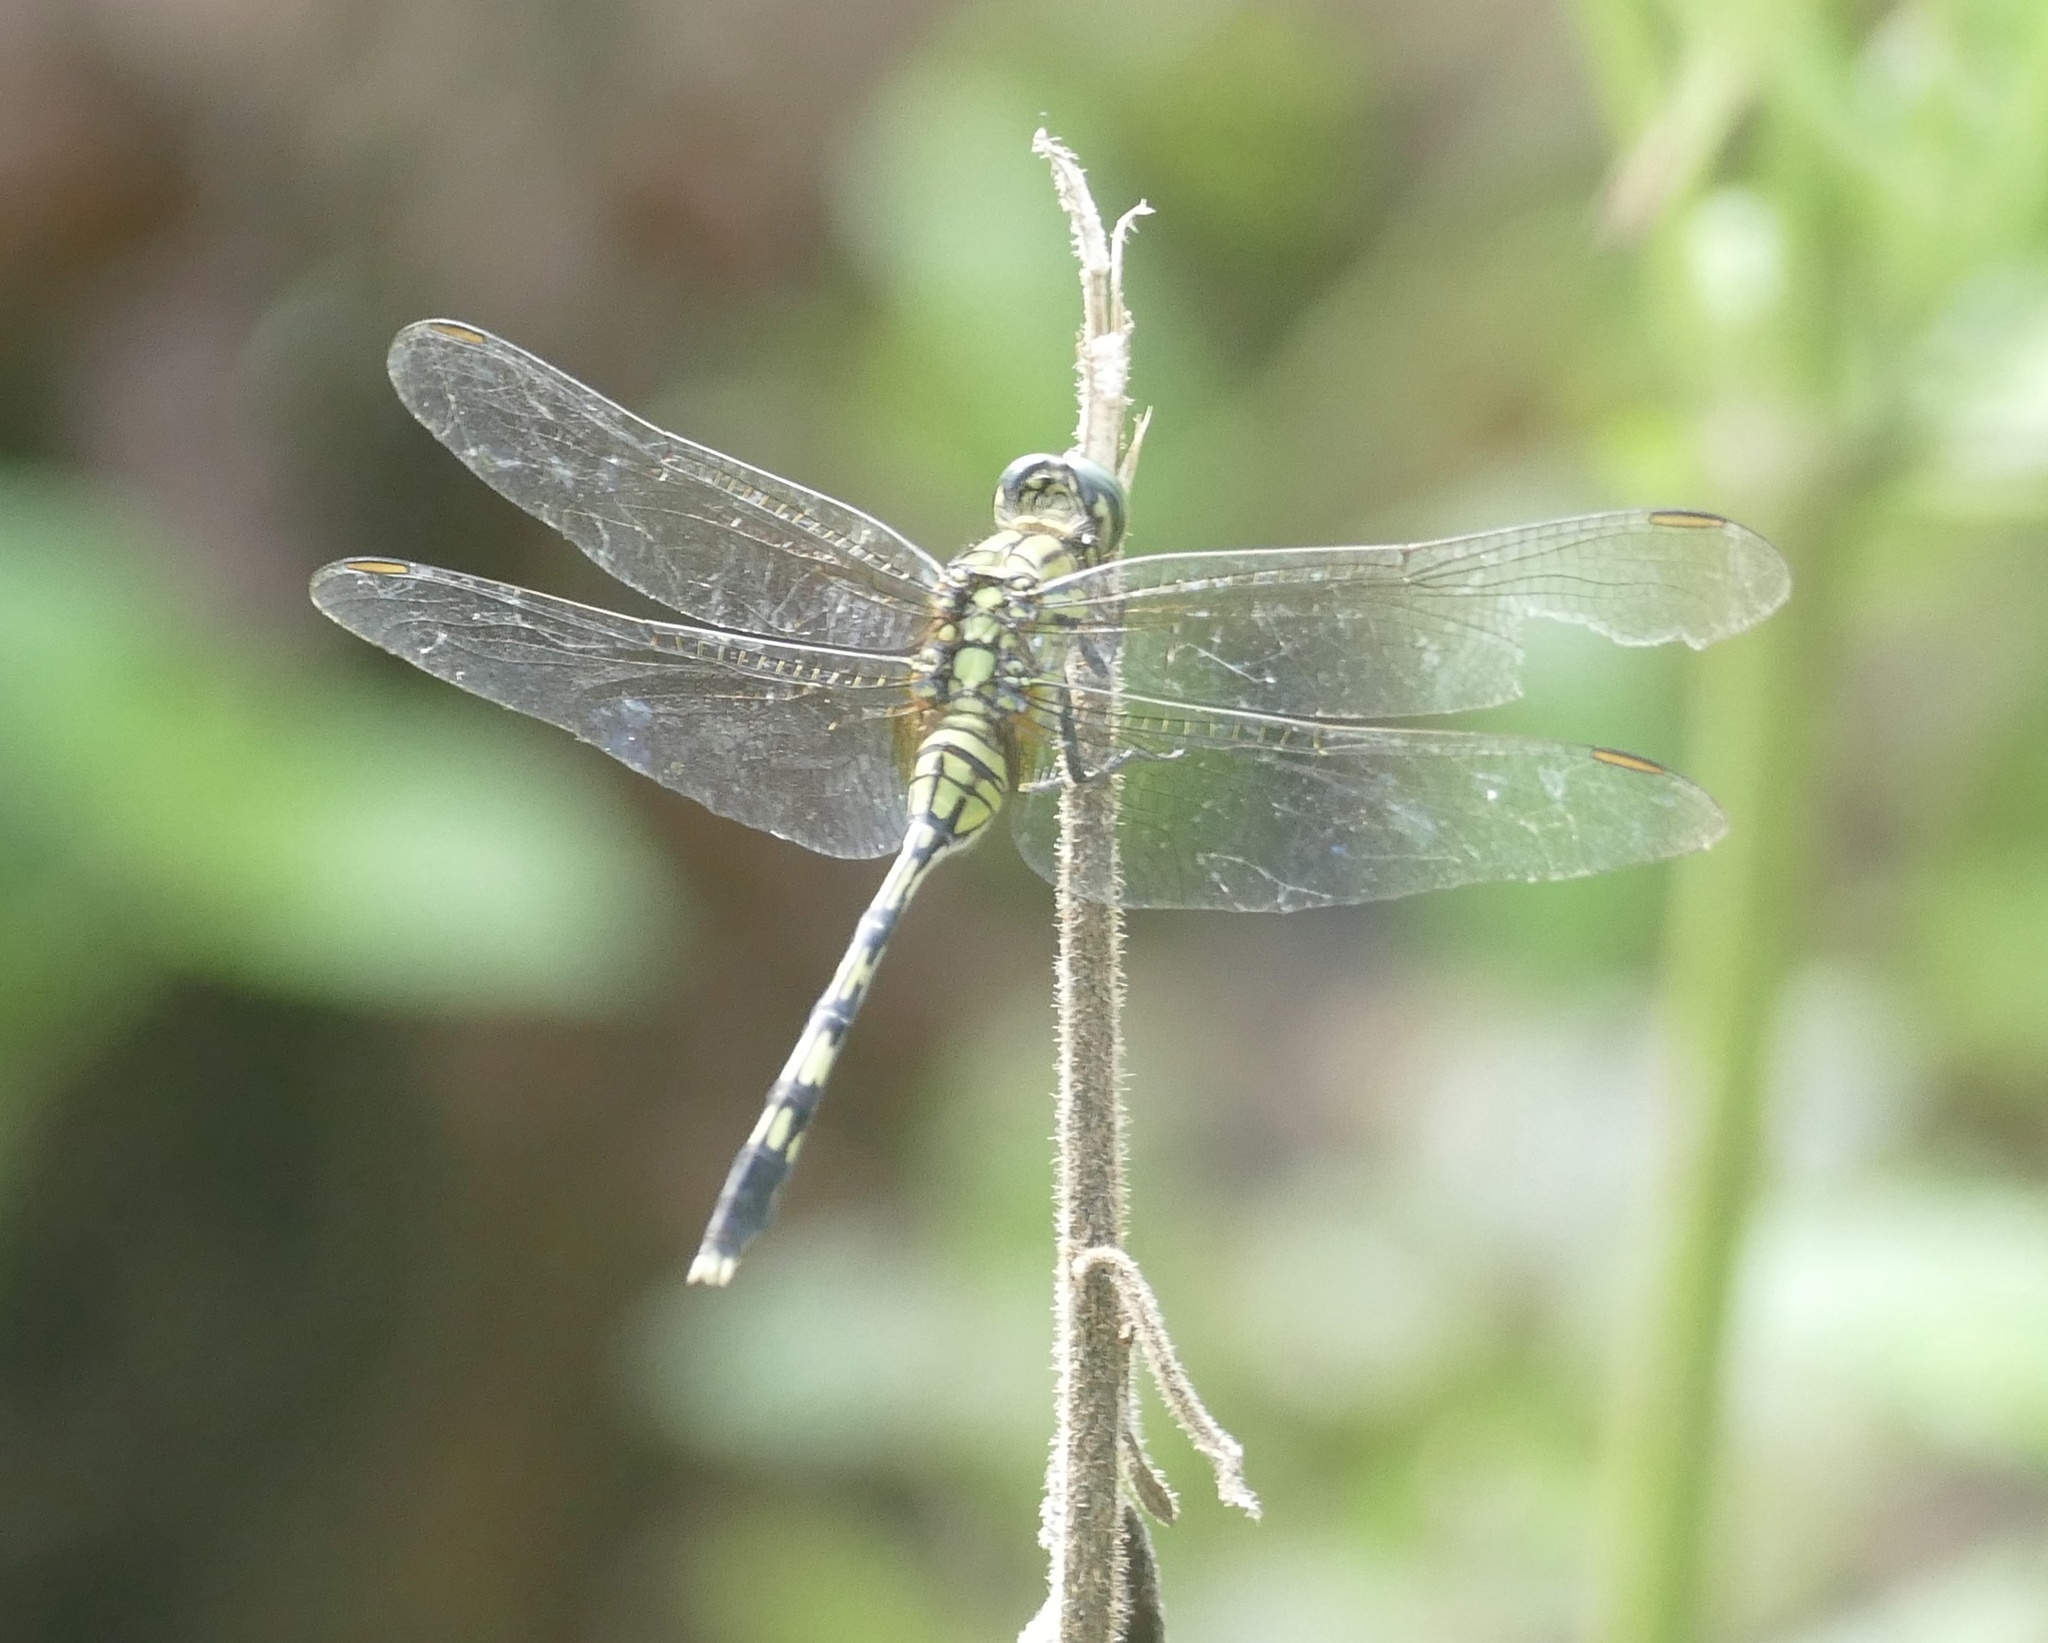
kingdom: Animalia
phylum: Arthropoda
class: Insecta
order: Odonata
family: Libellulidae
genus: Orthetrum
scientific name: Orthetrum serapia
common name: Green skimmer
